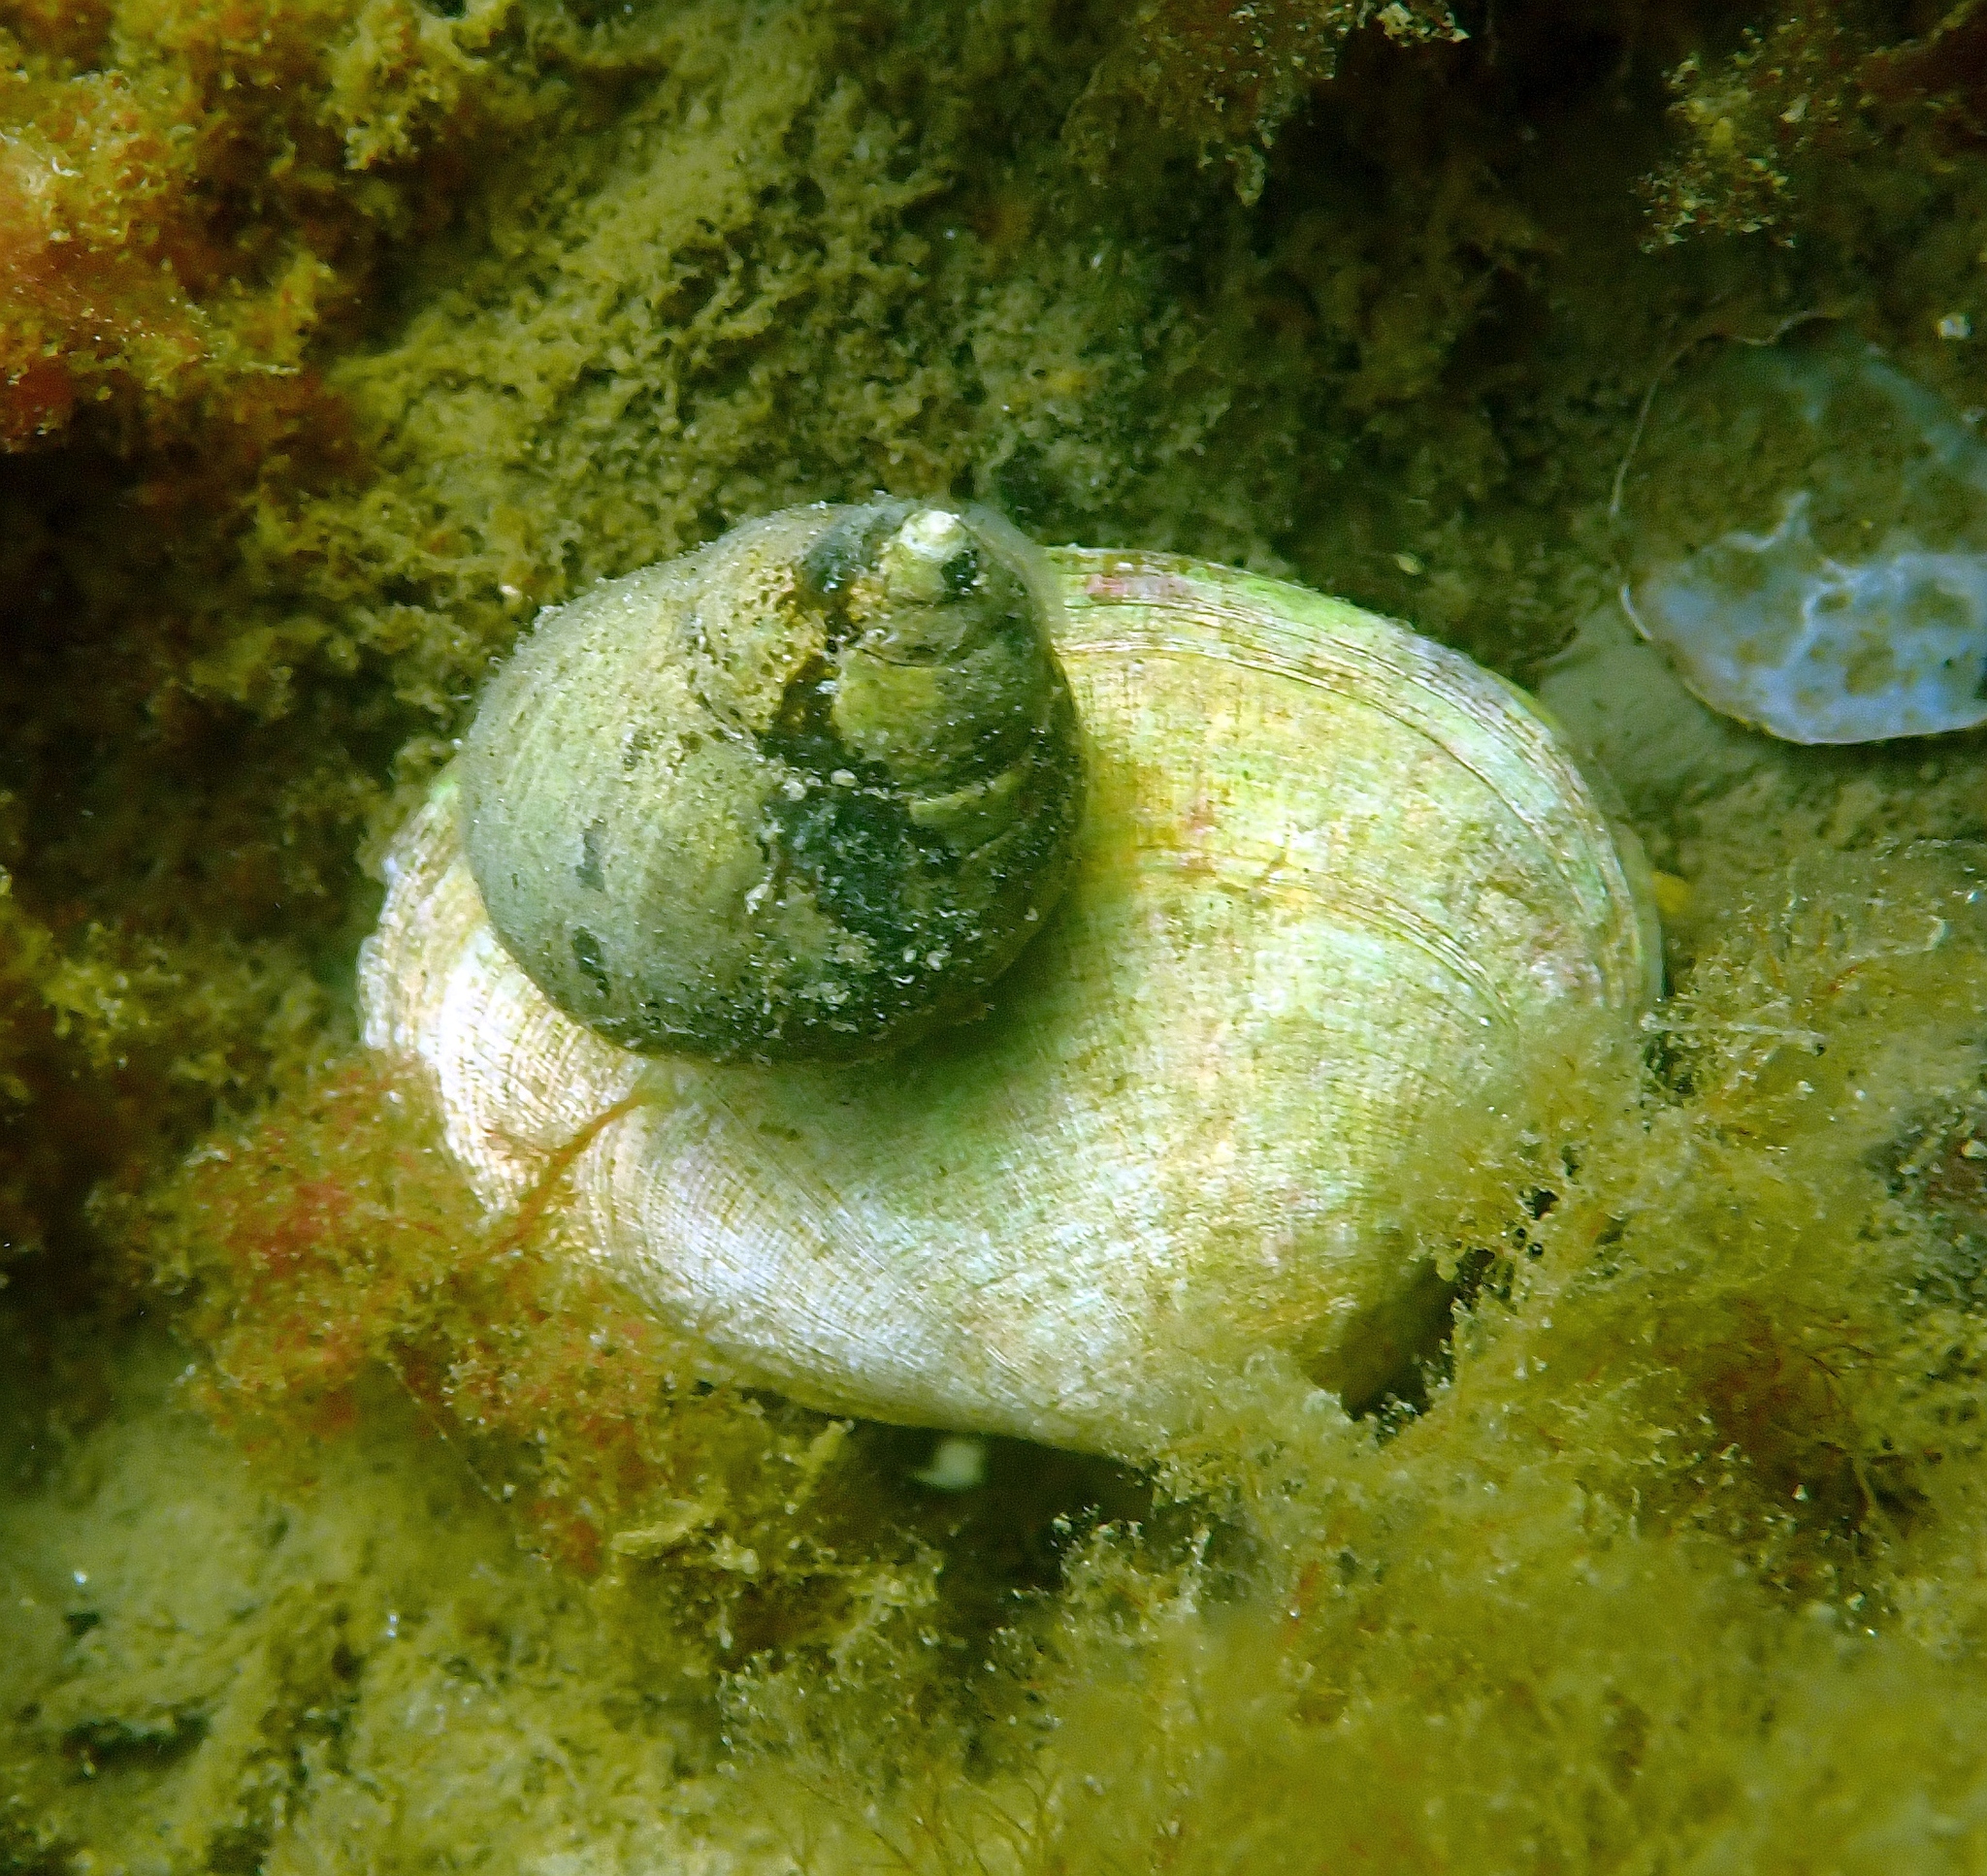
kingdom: Animalia
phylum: Mollusca
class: Gastropoda
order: Littorinimorpha
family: Littorinidae
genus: Littorina
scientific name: Littorina littorea
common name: Common periwinkle
